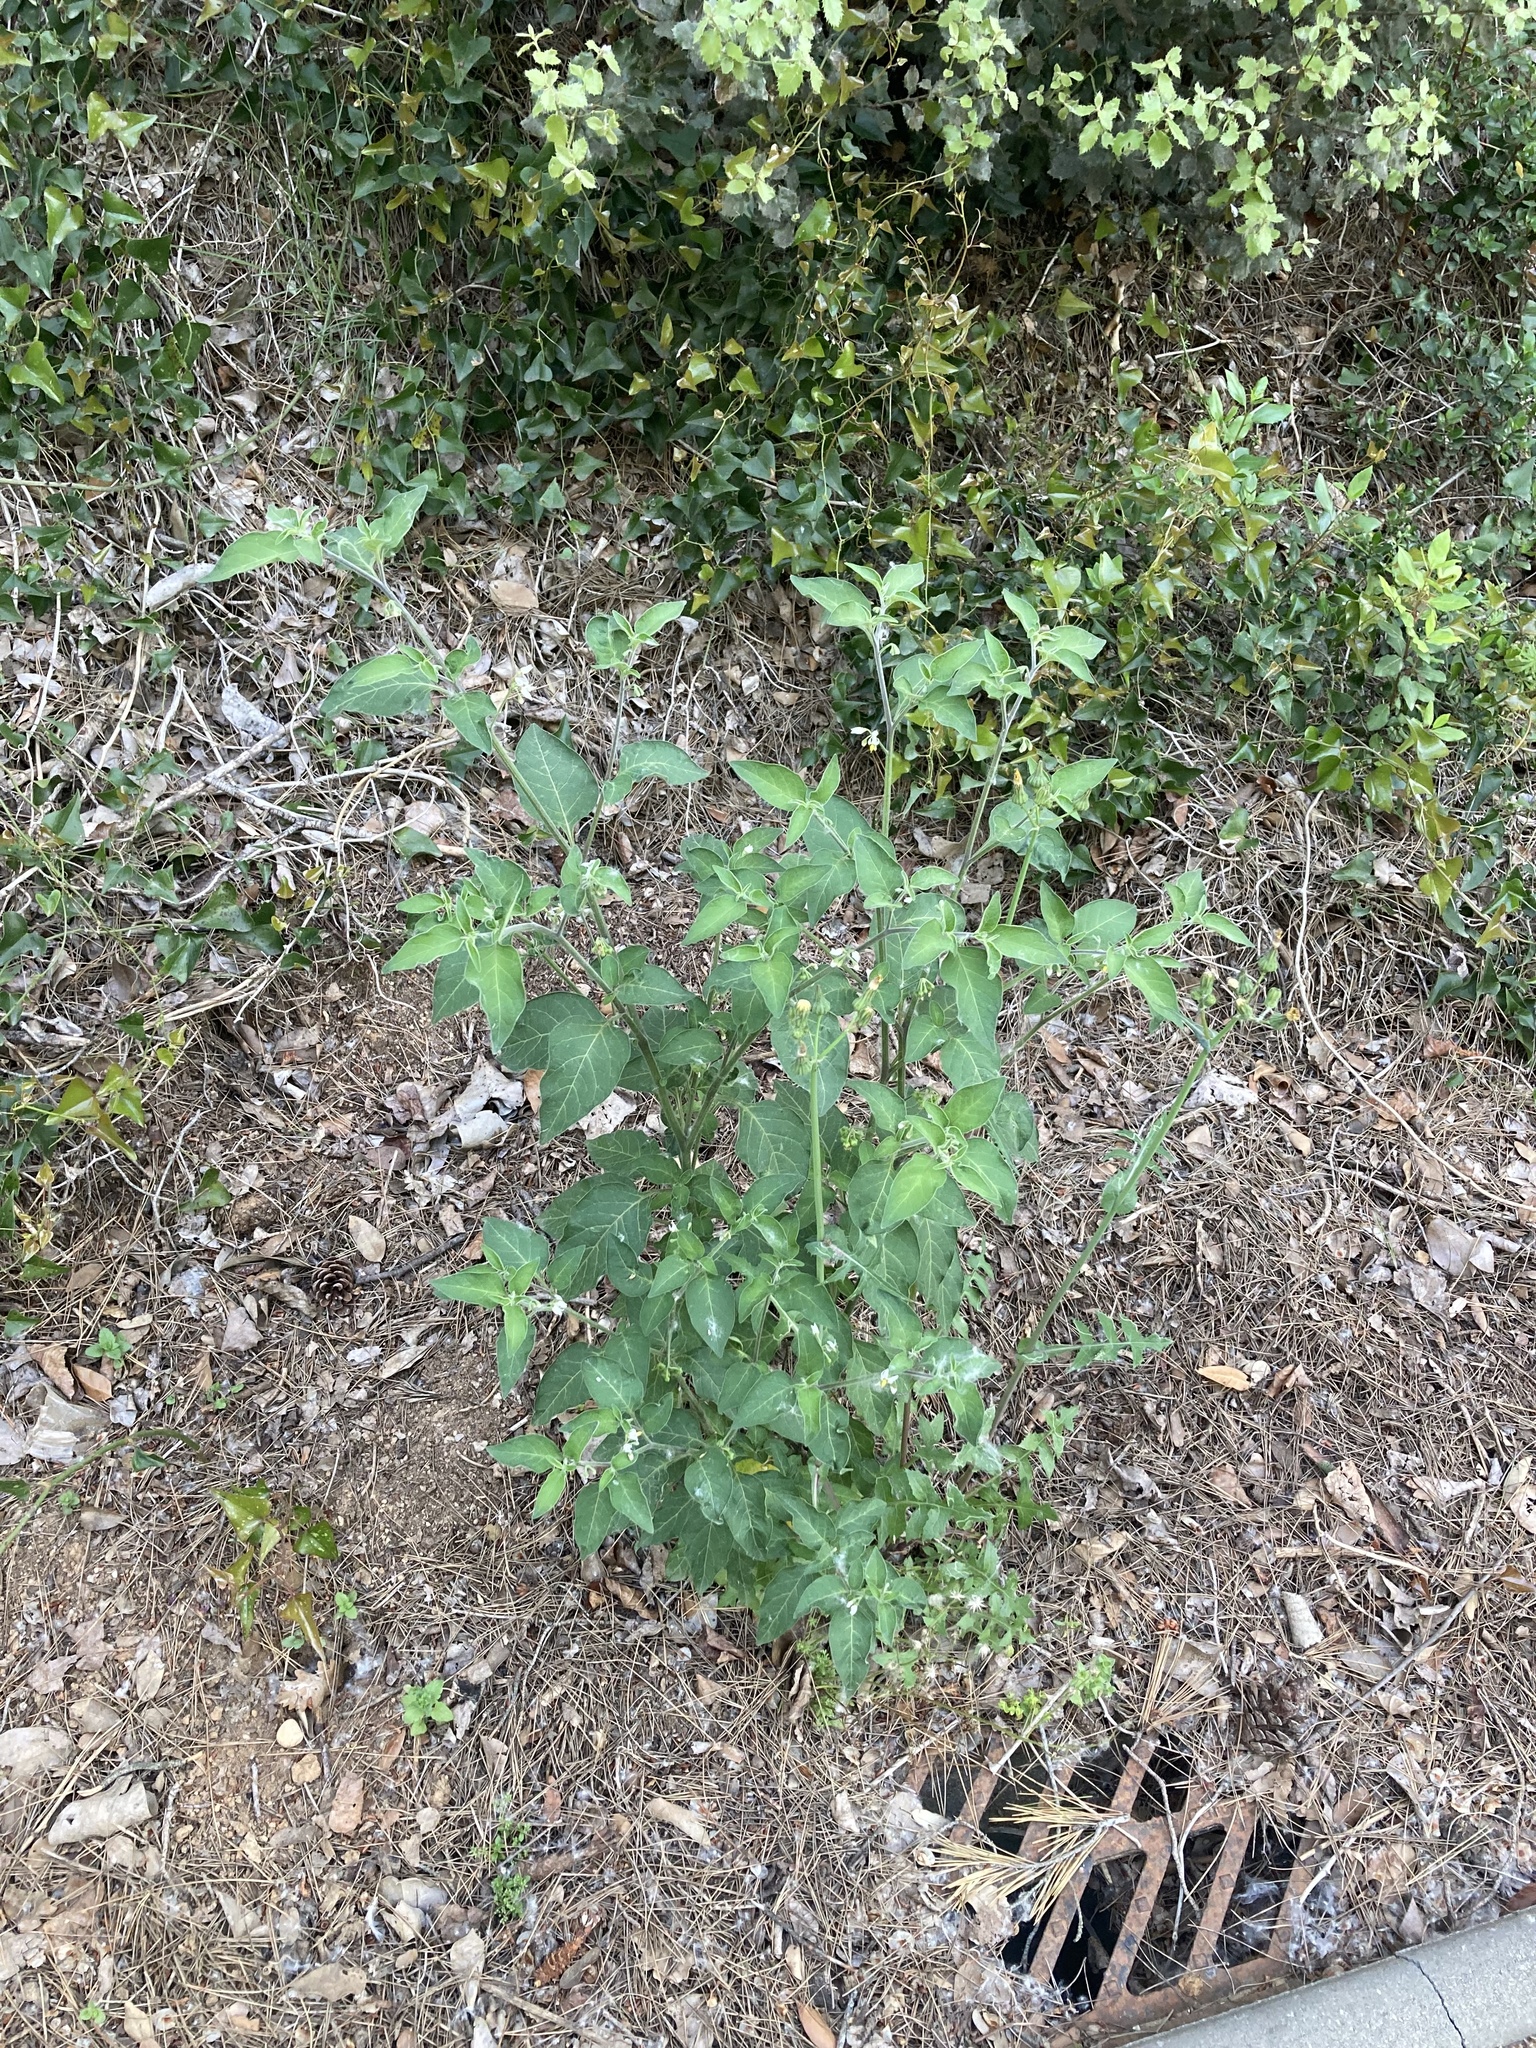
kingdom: Plantae
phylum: Tracheophyta
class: Magnoliopsida
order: Solanales
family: Solanaceae
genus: Solanum
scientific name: Solanum chenopodioides
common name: Tall nightshade
